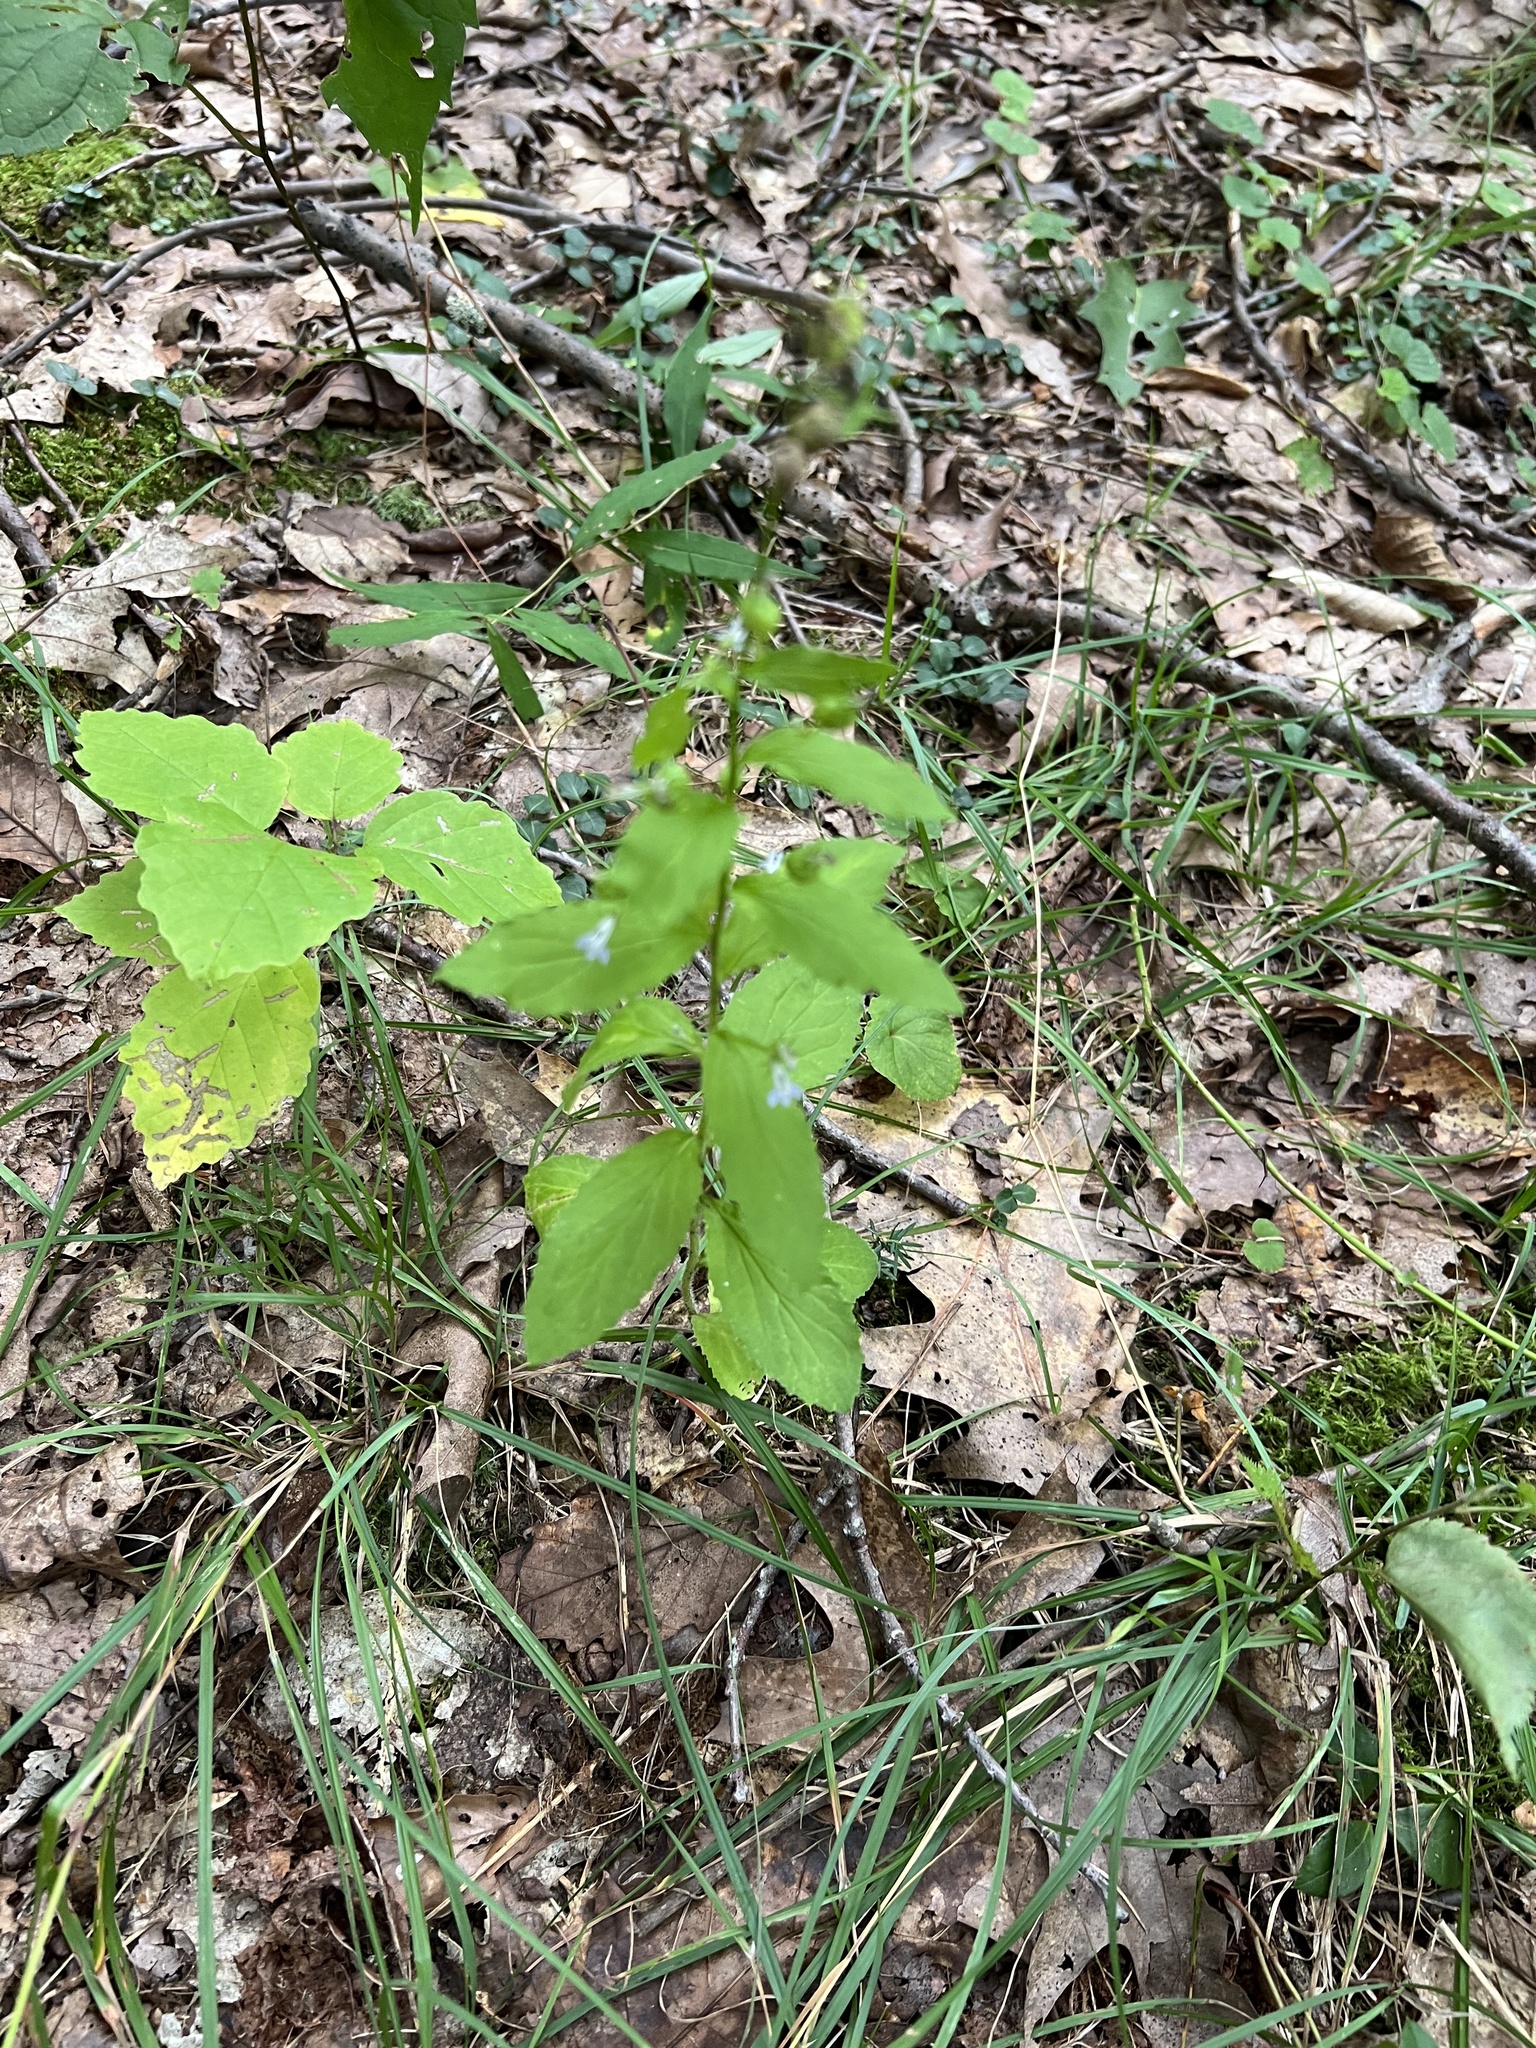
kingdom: Plantae
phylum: Tracheophyta
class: Magnoliopsida
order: Asterales
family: Campanulaceae
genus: Lobelia
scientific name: Lobelia inflata
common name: Indian tobacco
